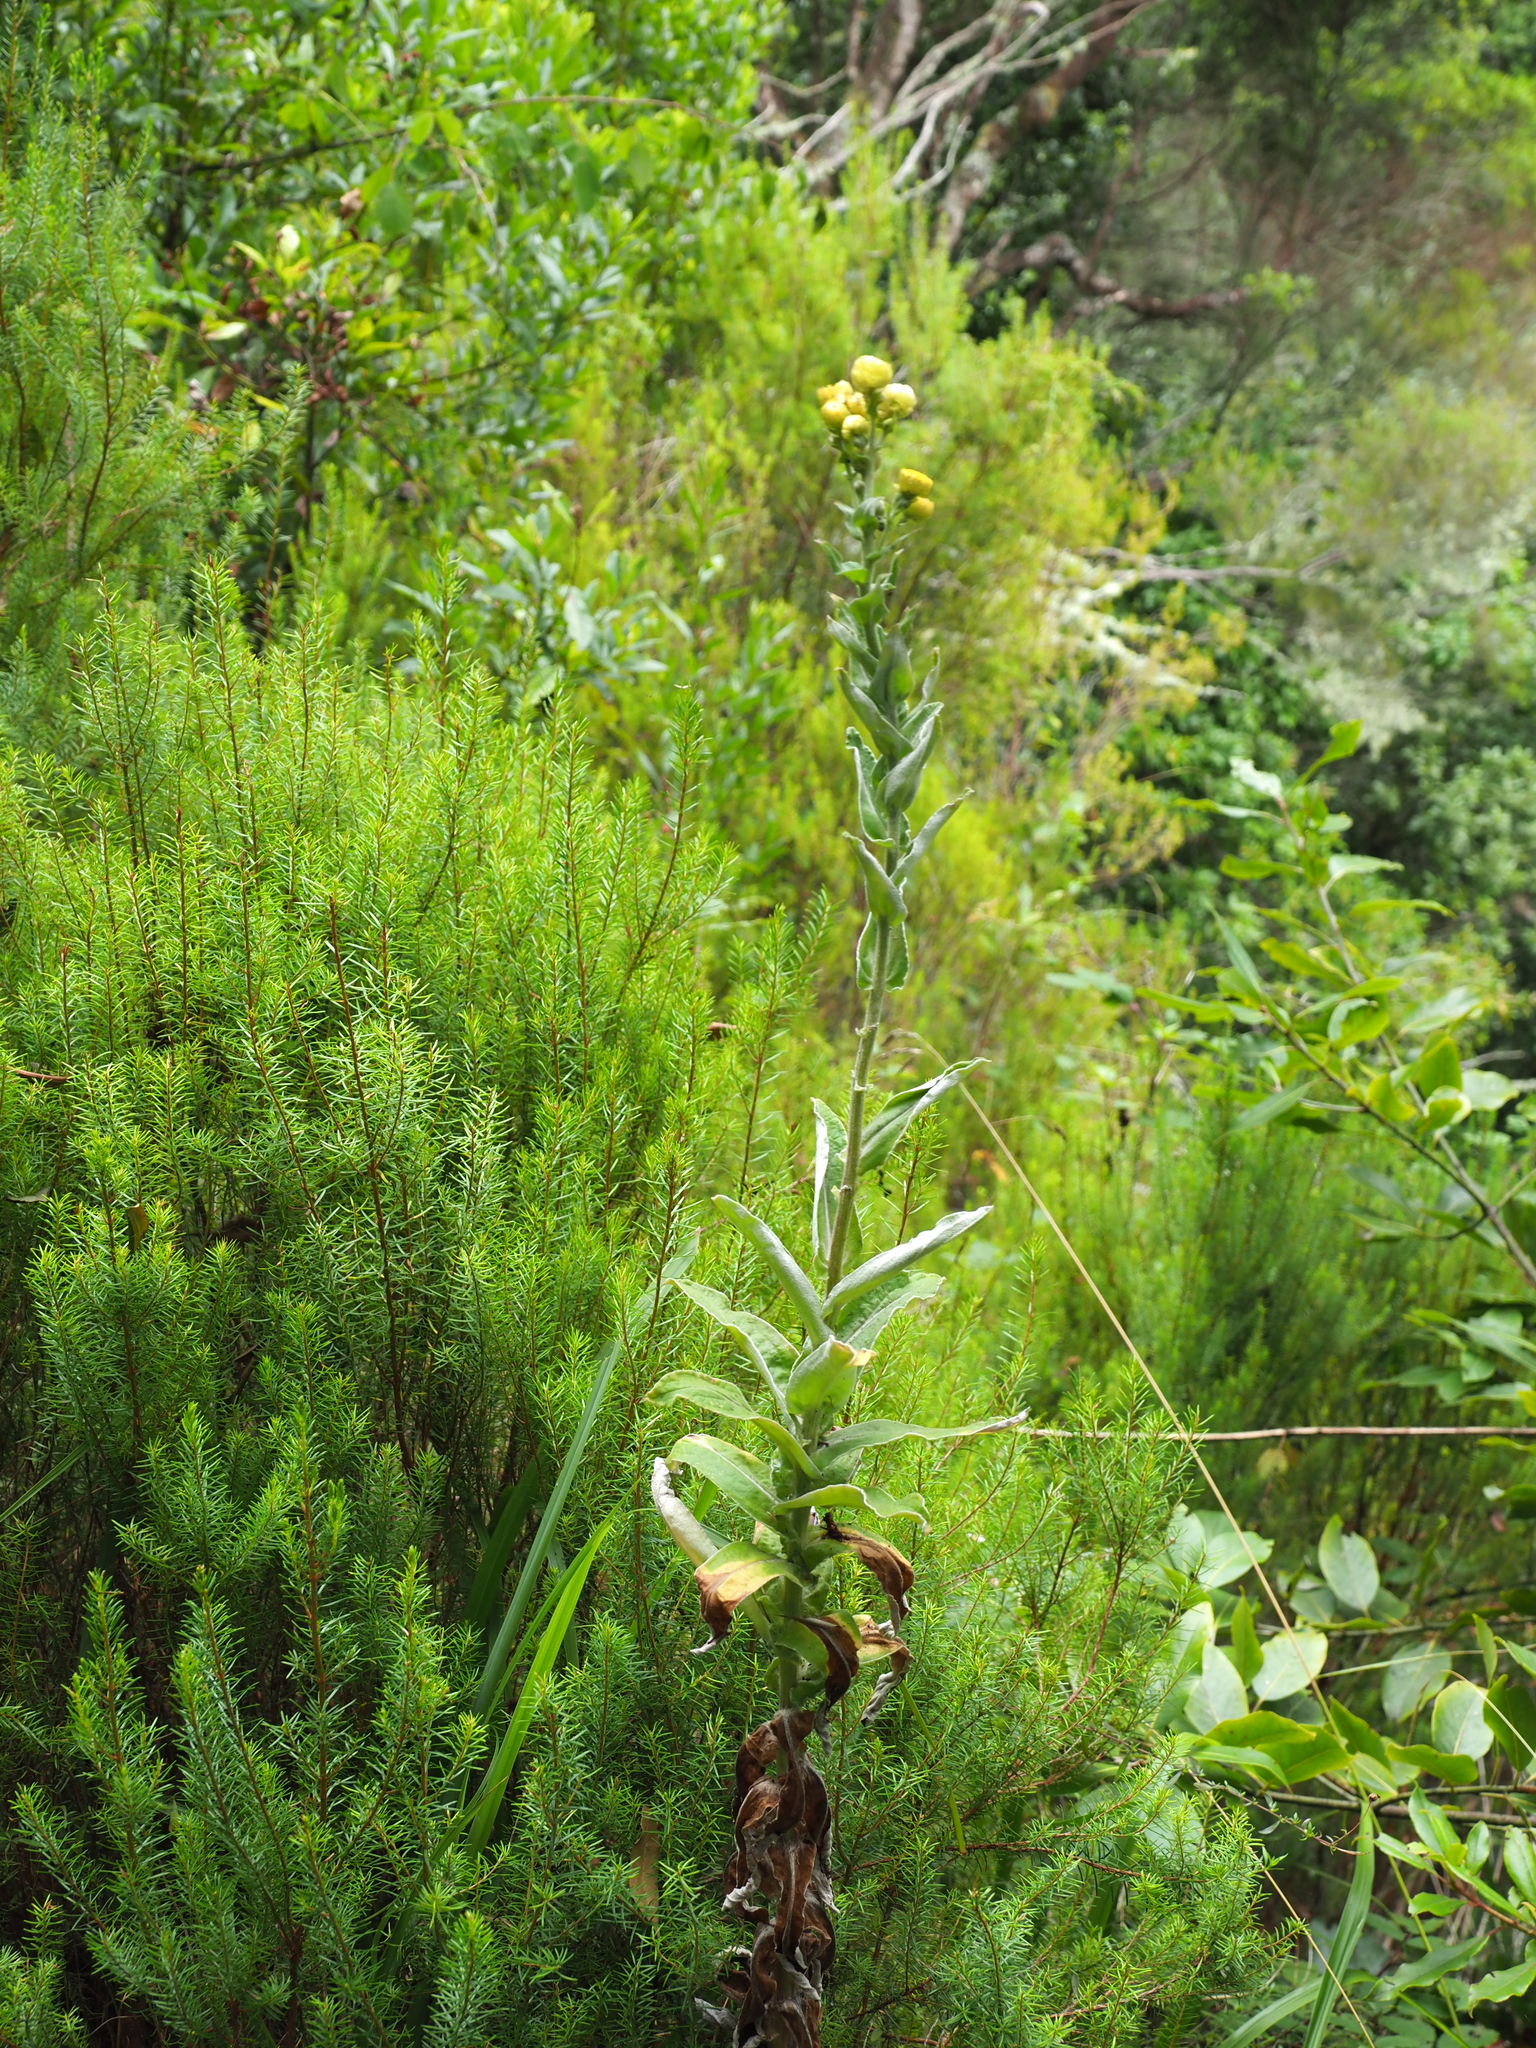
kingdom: Plantae
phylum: Tracheophyta
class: Magnoliopsida
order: Asterales
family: Asteraceae
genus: Helichrysum
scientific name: Helichrysum foetidum
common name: Stinking everlasting
